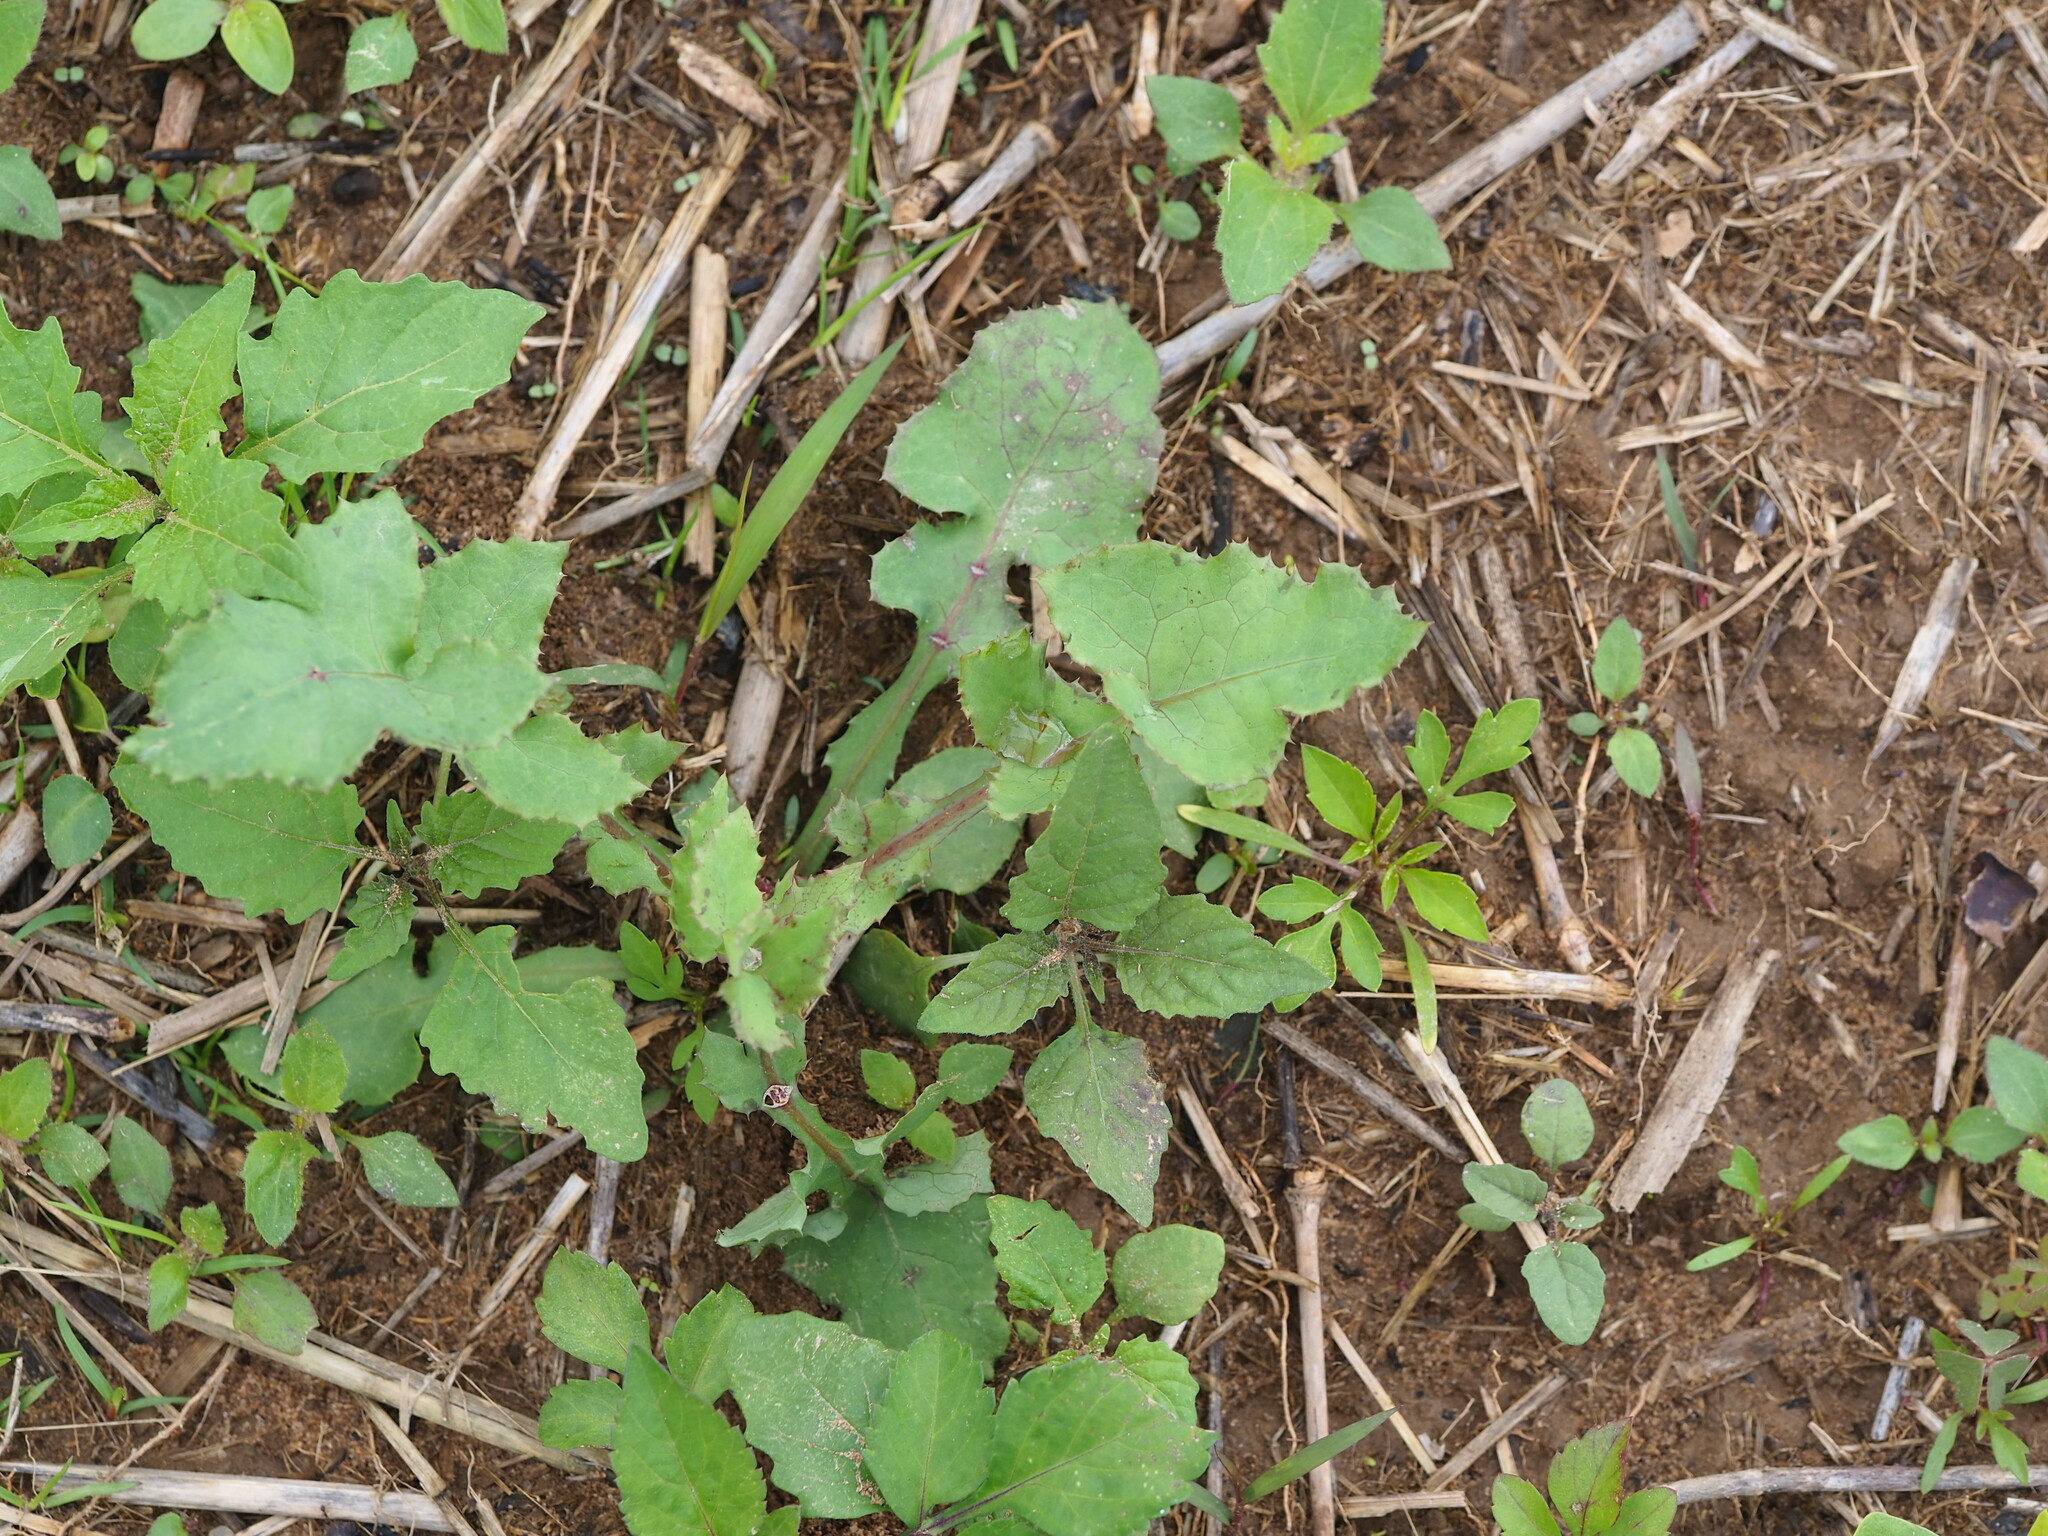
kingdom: Plantae
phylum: Tracheophyta
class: Magnoliopsida
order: Asterales
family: Asteraceae
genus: Sonchus
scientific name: Sonchus oleraceus
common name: Common sowthistle
